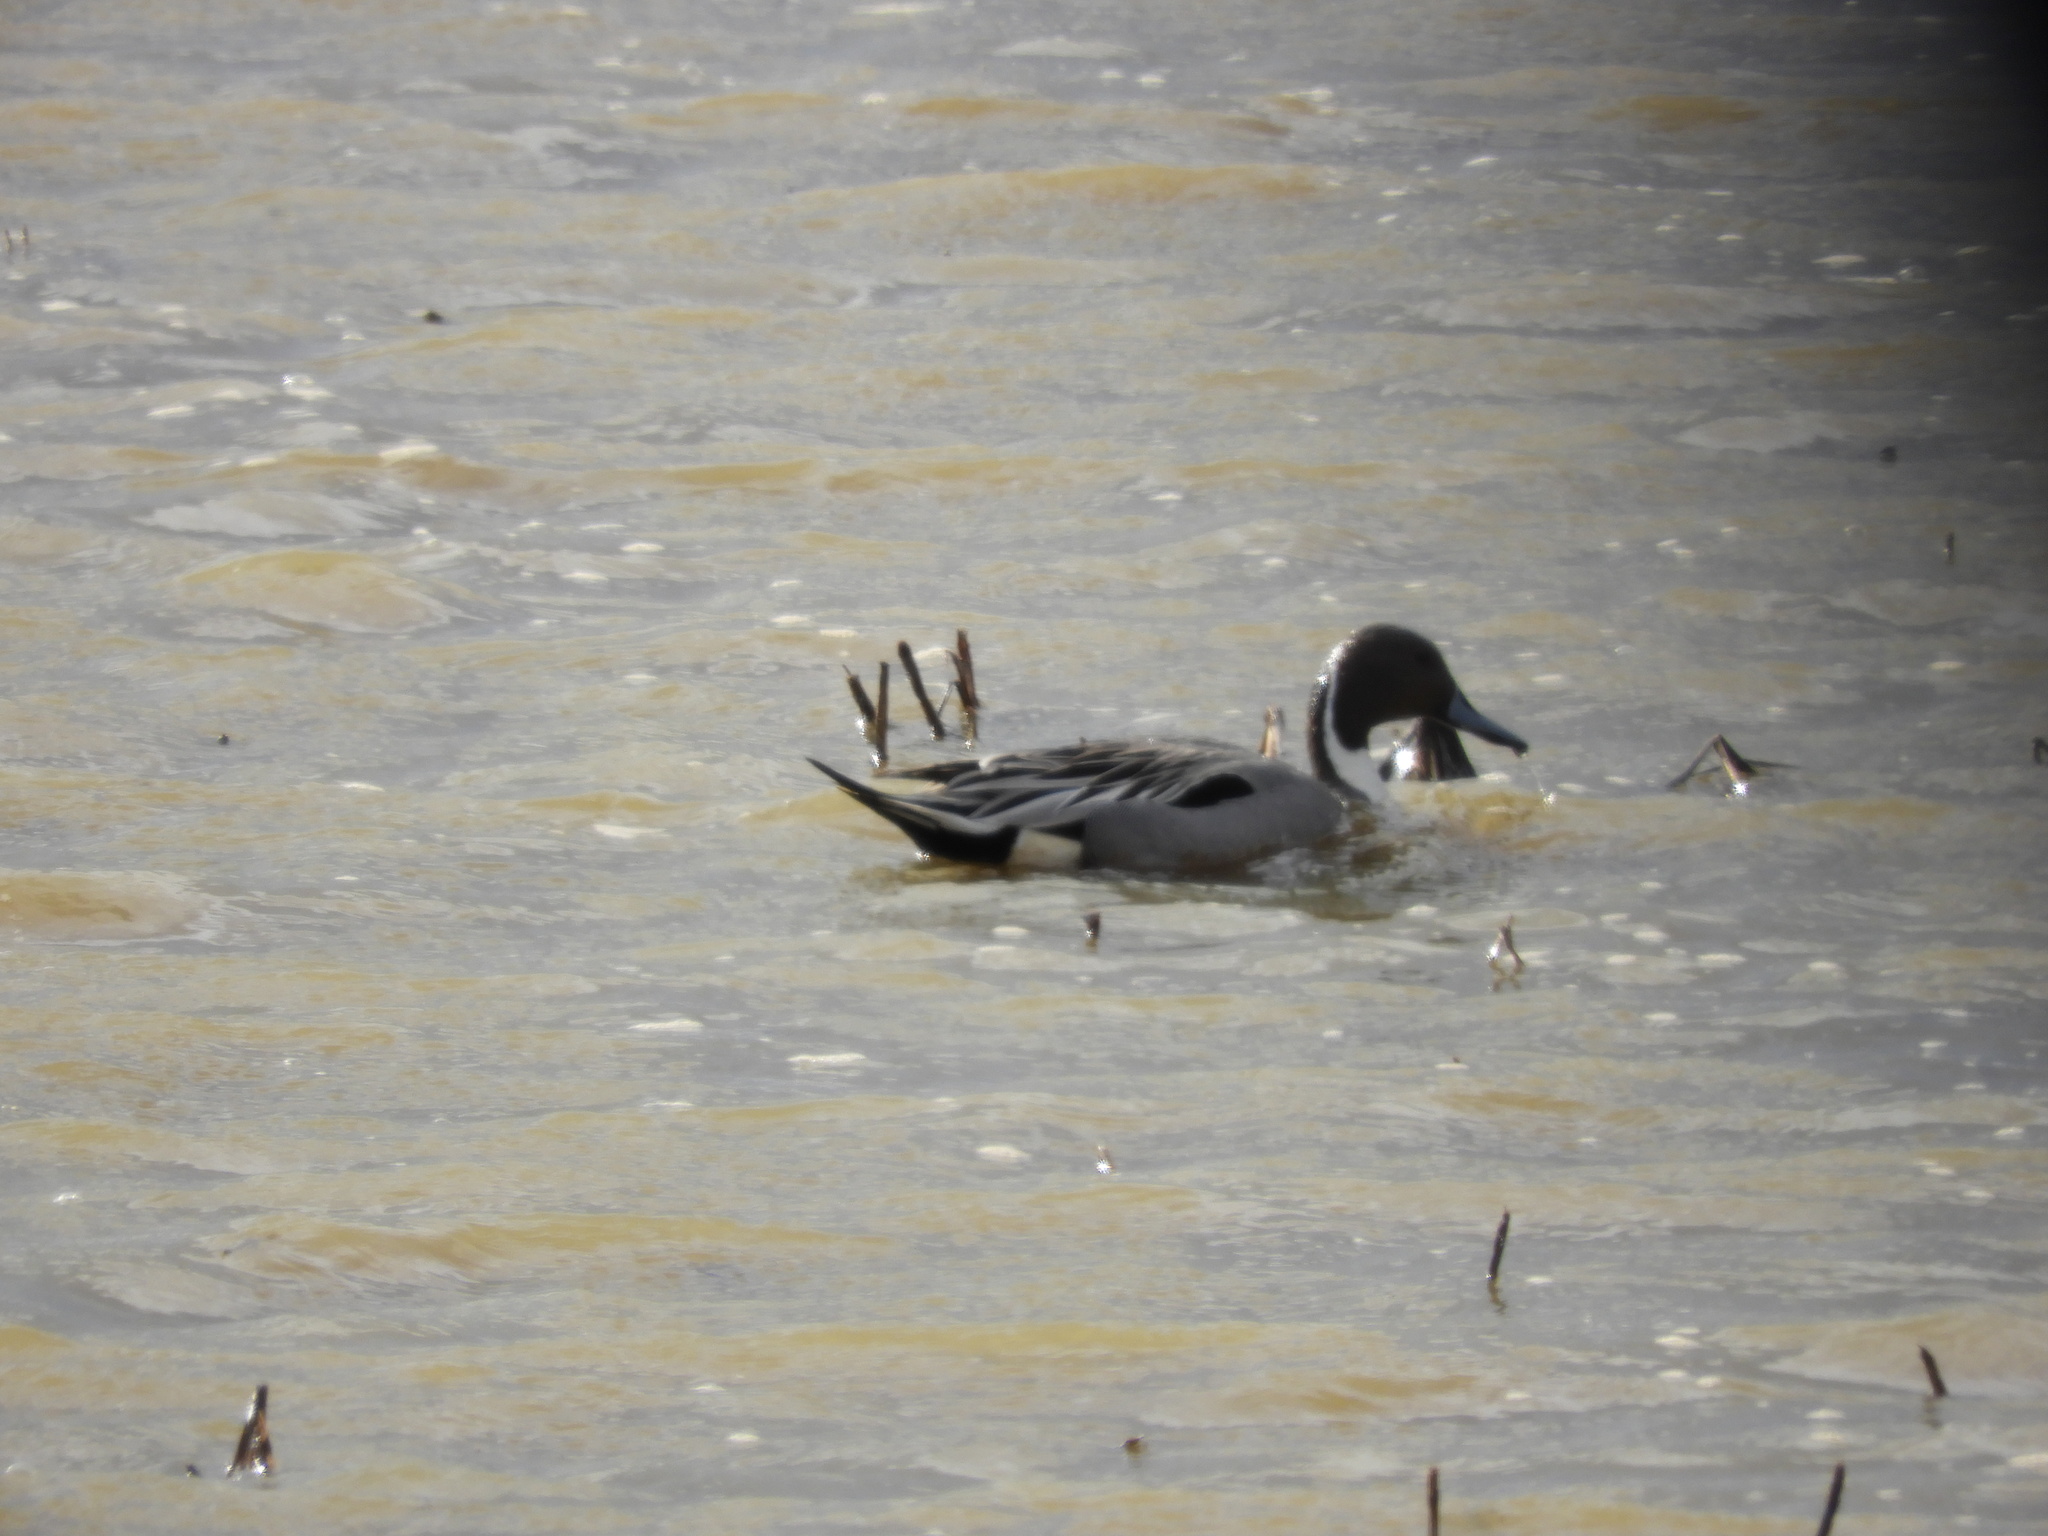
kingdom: Animalia
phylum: Chordata
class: Aves
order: Anseriformes
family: Anatidae
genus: Anas
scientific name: Anas acuta
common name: Northern pintail
